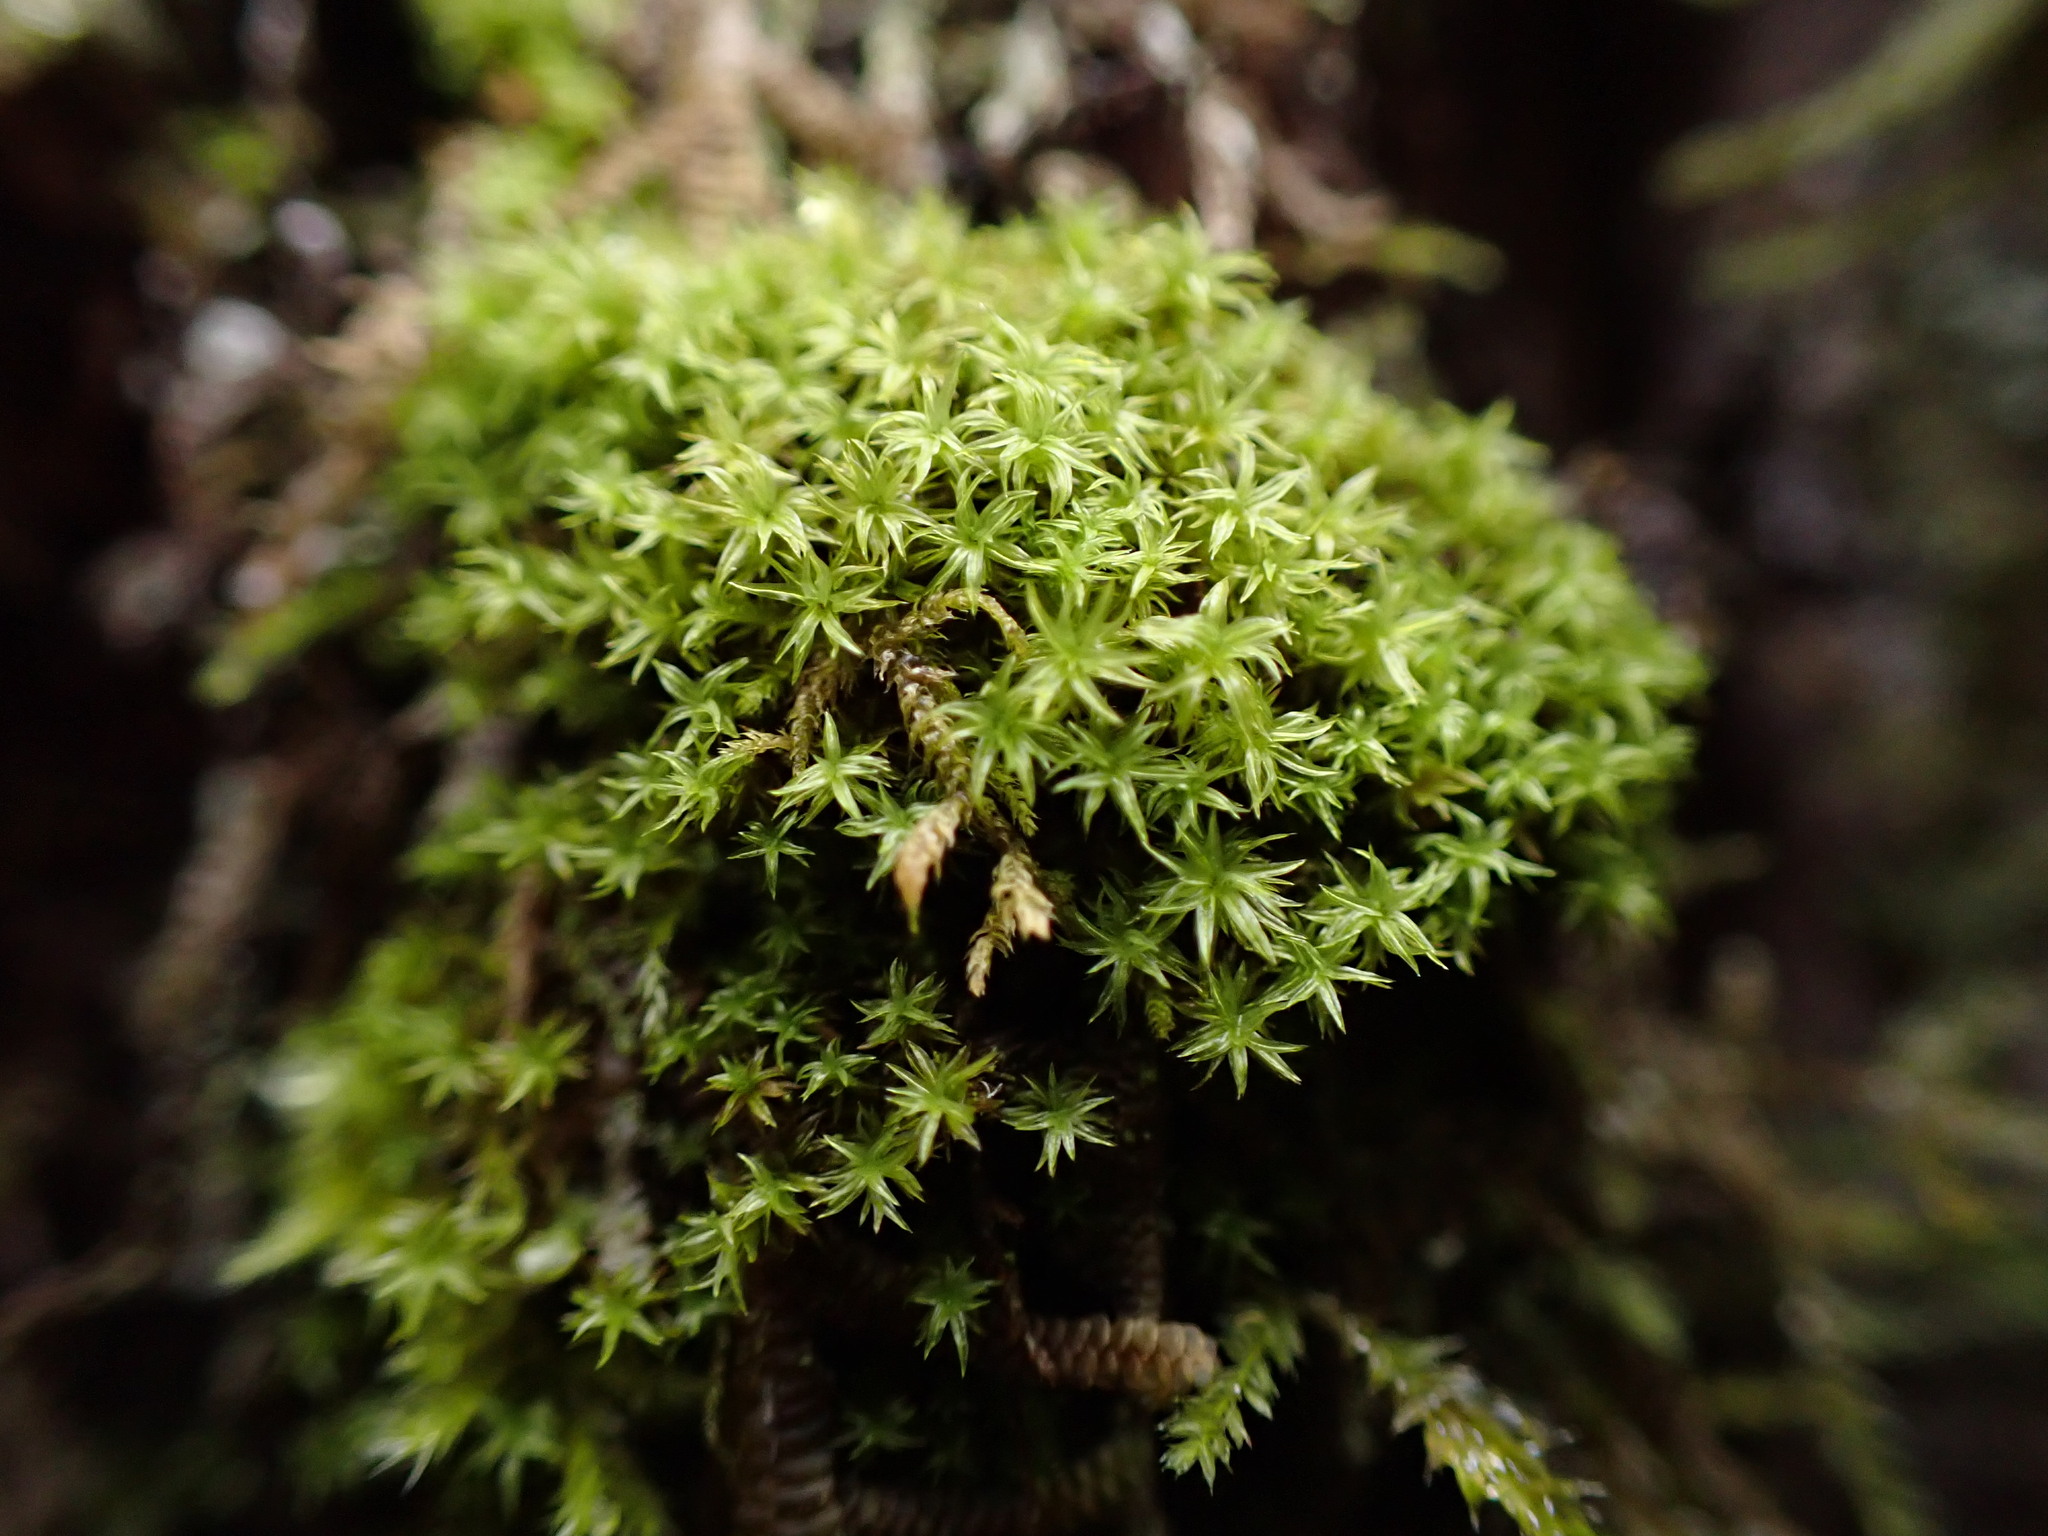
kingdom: Plantae
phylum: Bryophyta
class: Bryopsida
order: Orthotrichales
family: Orthotrichaceae
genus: Zygodon
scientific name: Zygodon rupestris
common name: Park yoke moss
